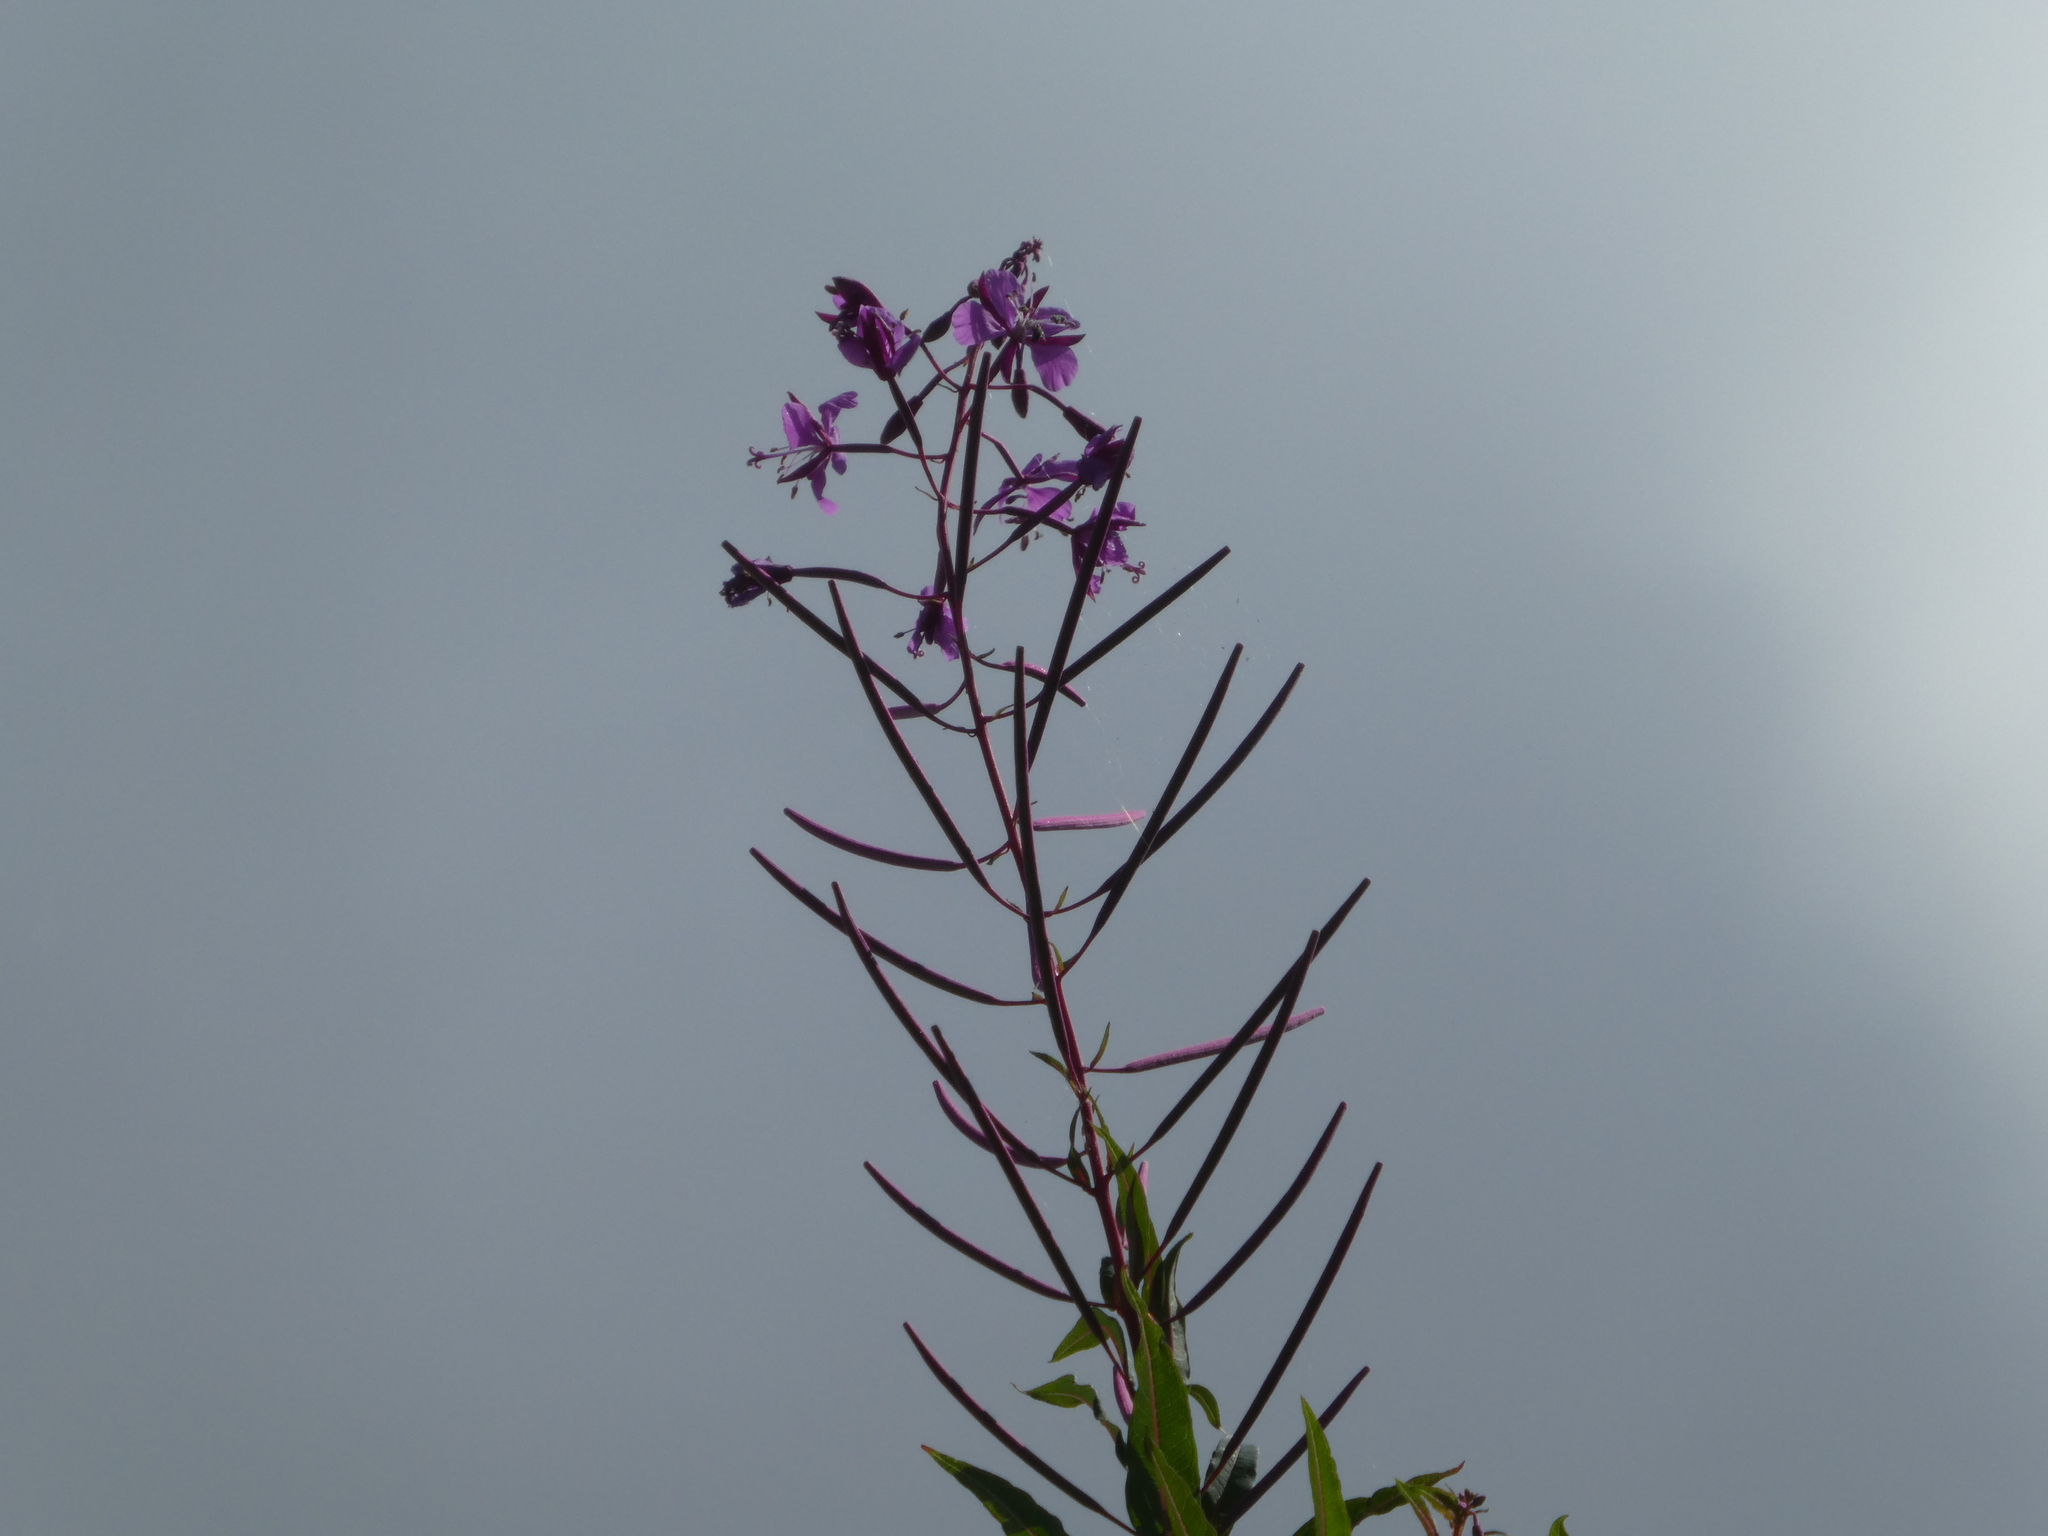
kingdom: Plantae
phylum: Tracheophyta
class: Magnoliopsida
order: Myrtales
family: Onagraceae
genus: Chamaenerion
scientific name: Chamaenerion angustifolium
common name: Fireweed
